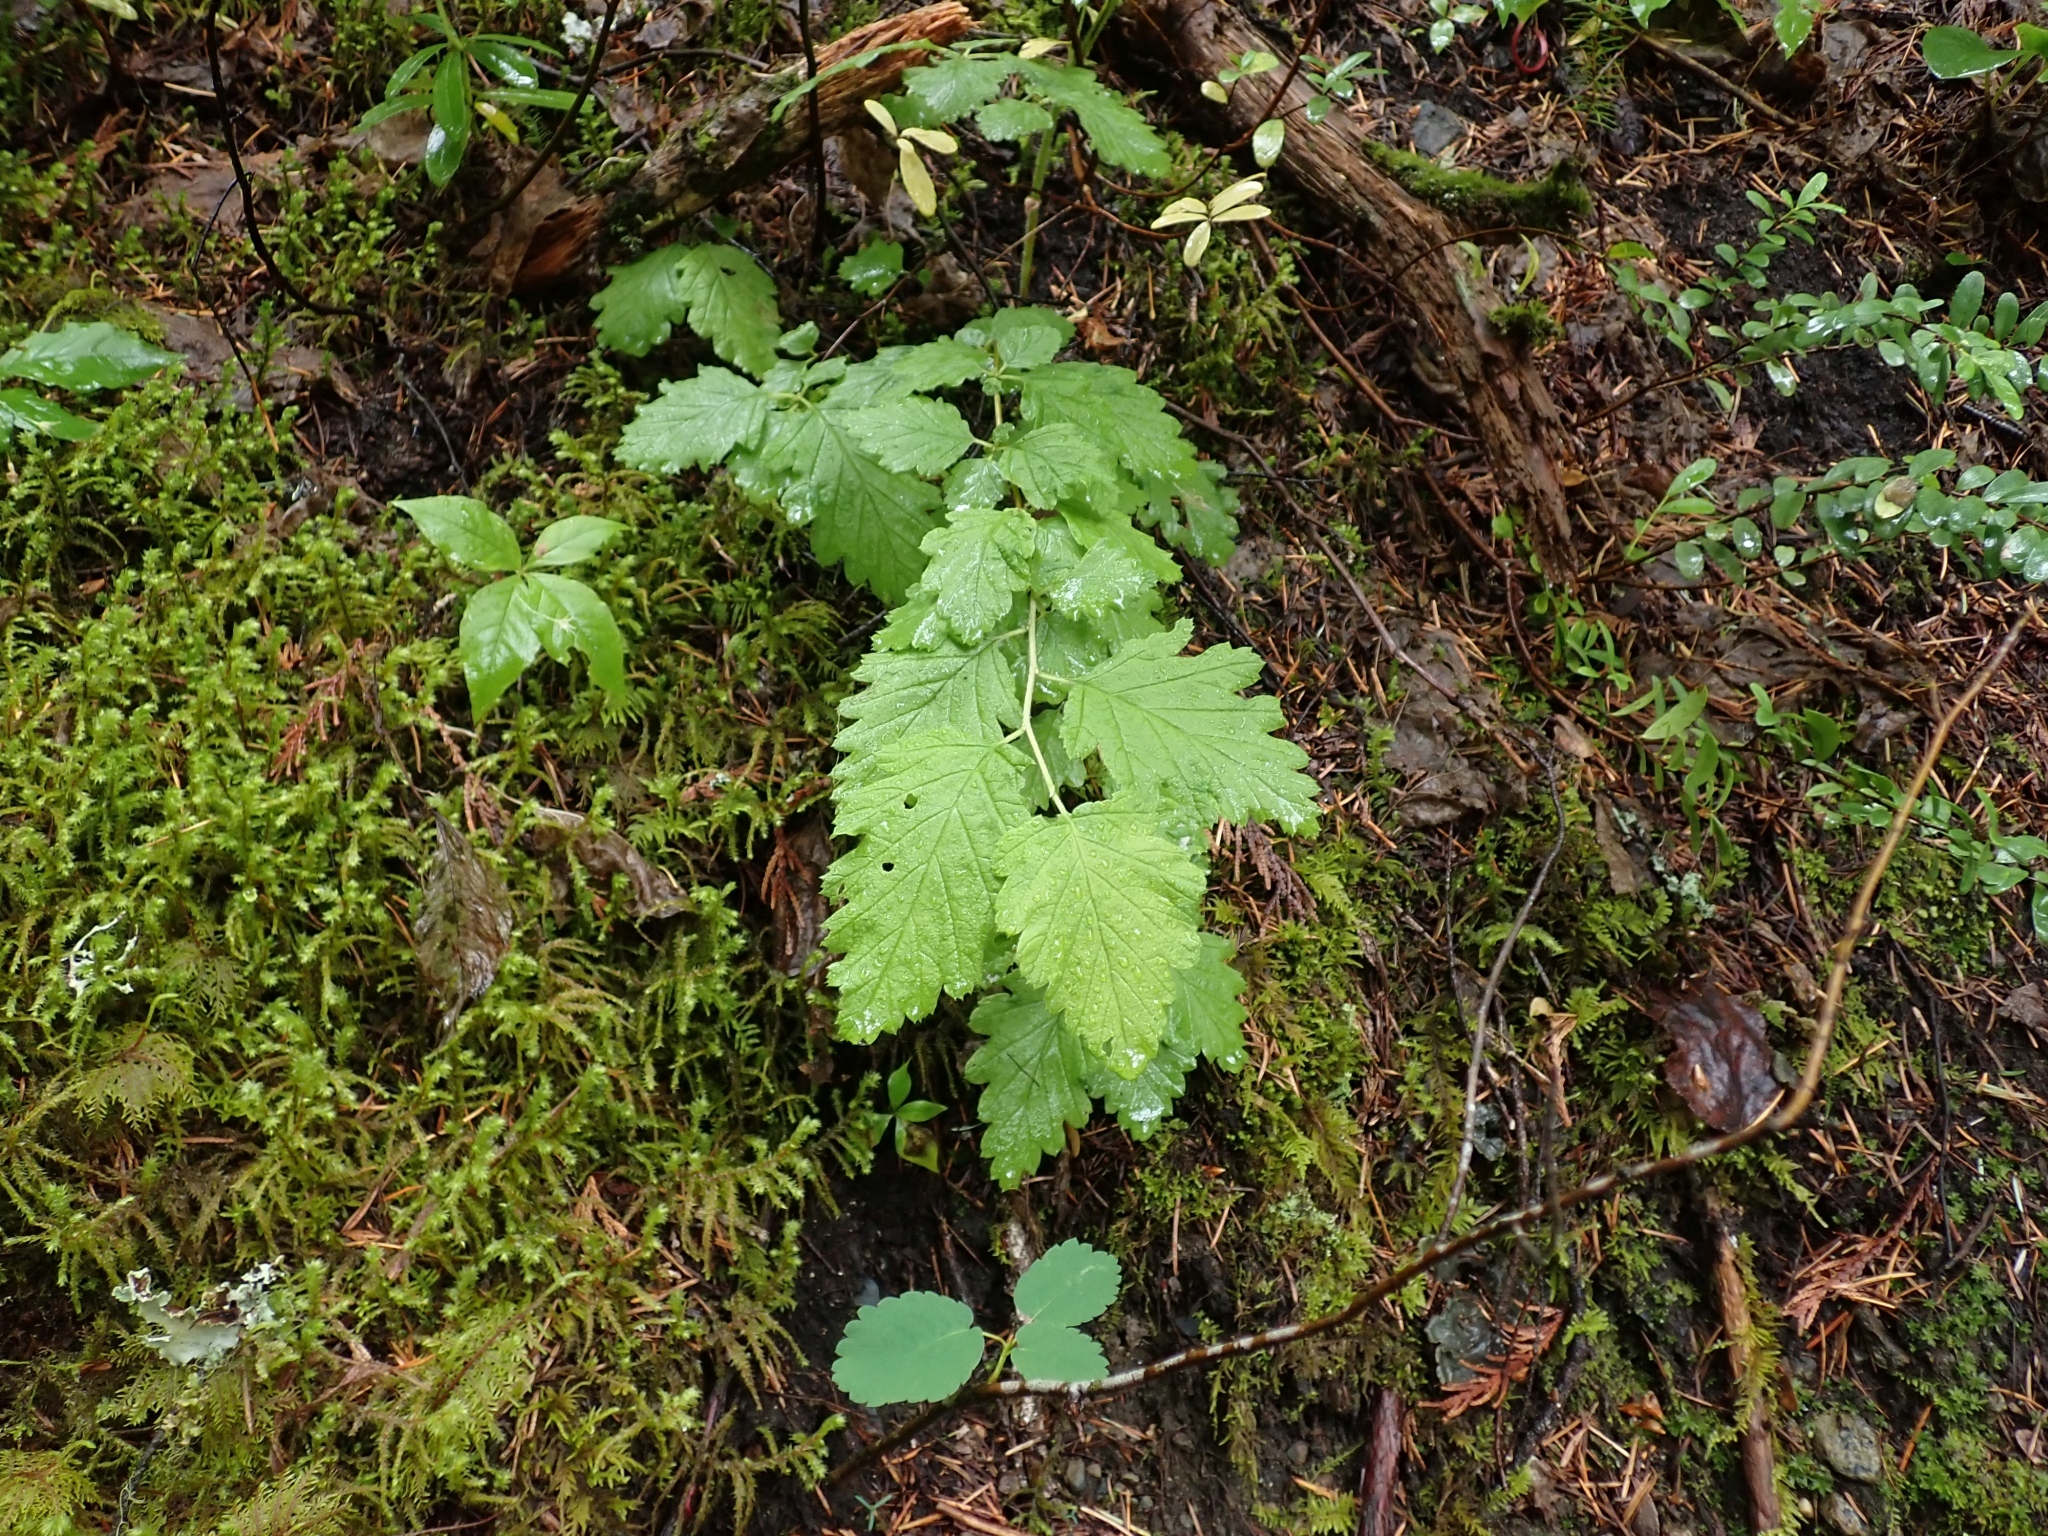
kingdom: Plantae
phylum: Tracheophyta
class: Magnoliopsida
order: Rosales
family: Rosaceae
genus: Holodiscus
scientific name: Holodiscus discolor
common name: Oceanspray
